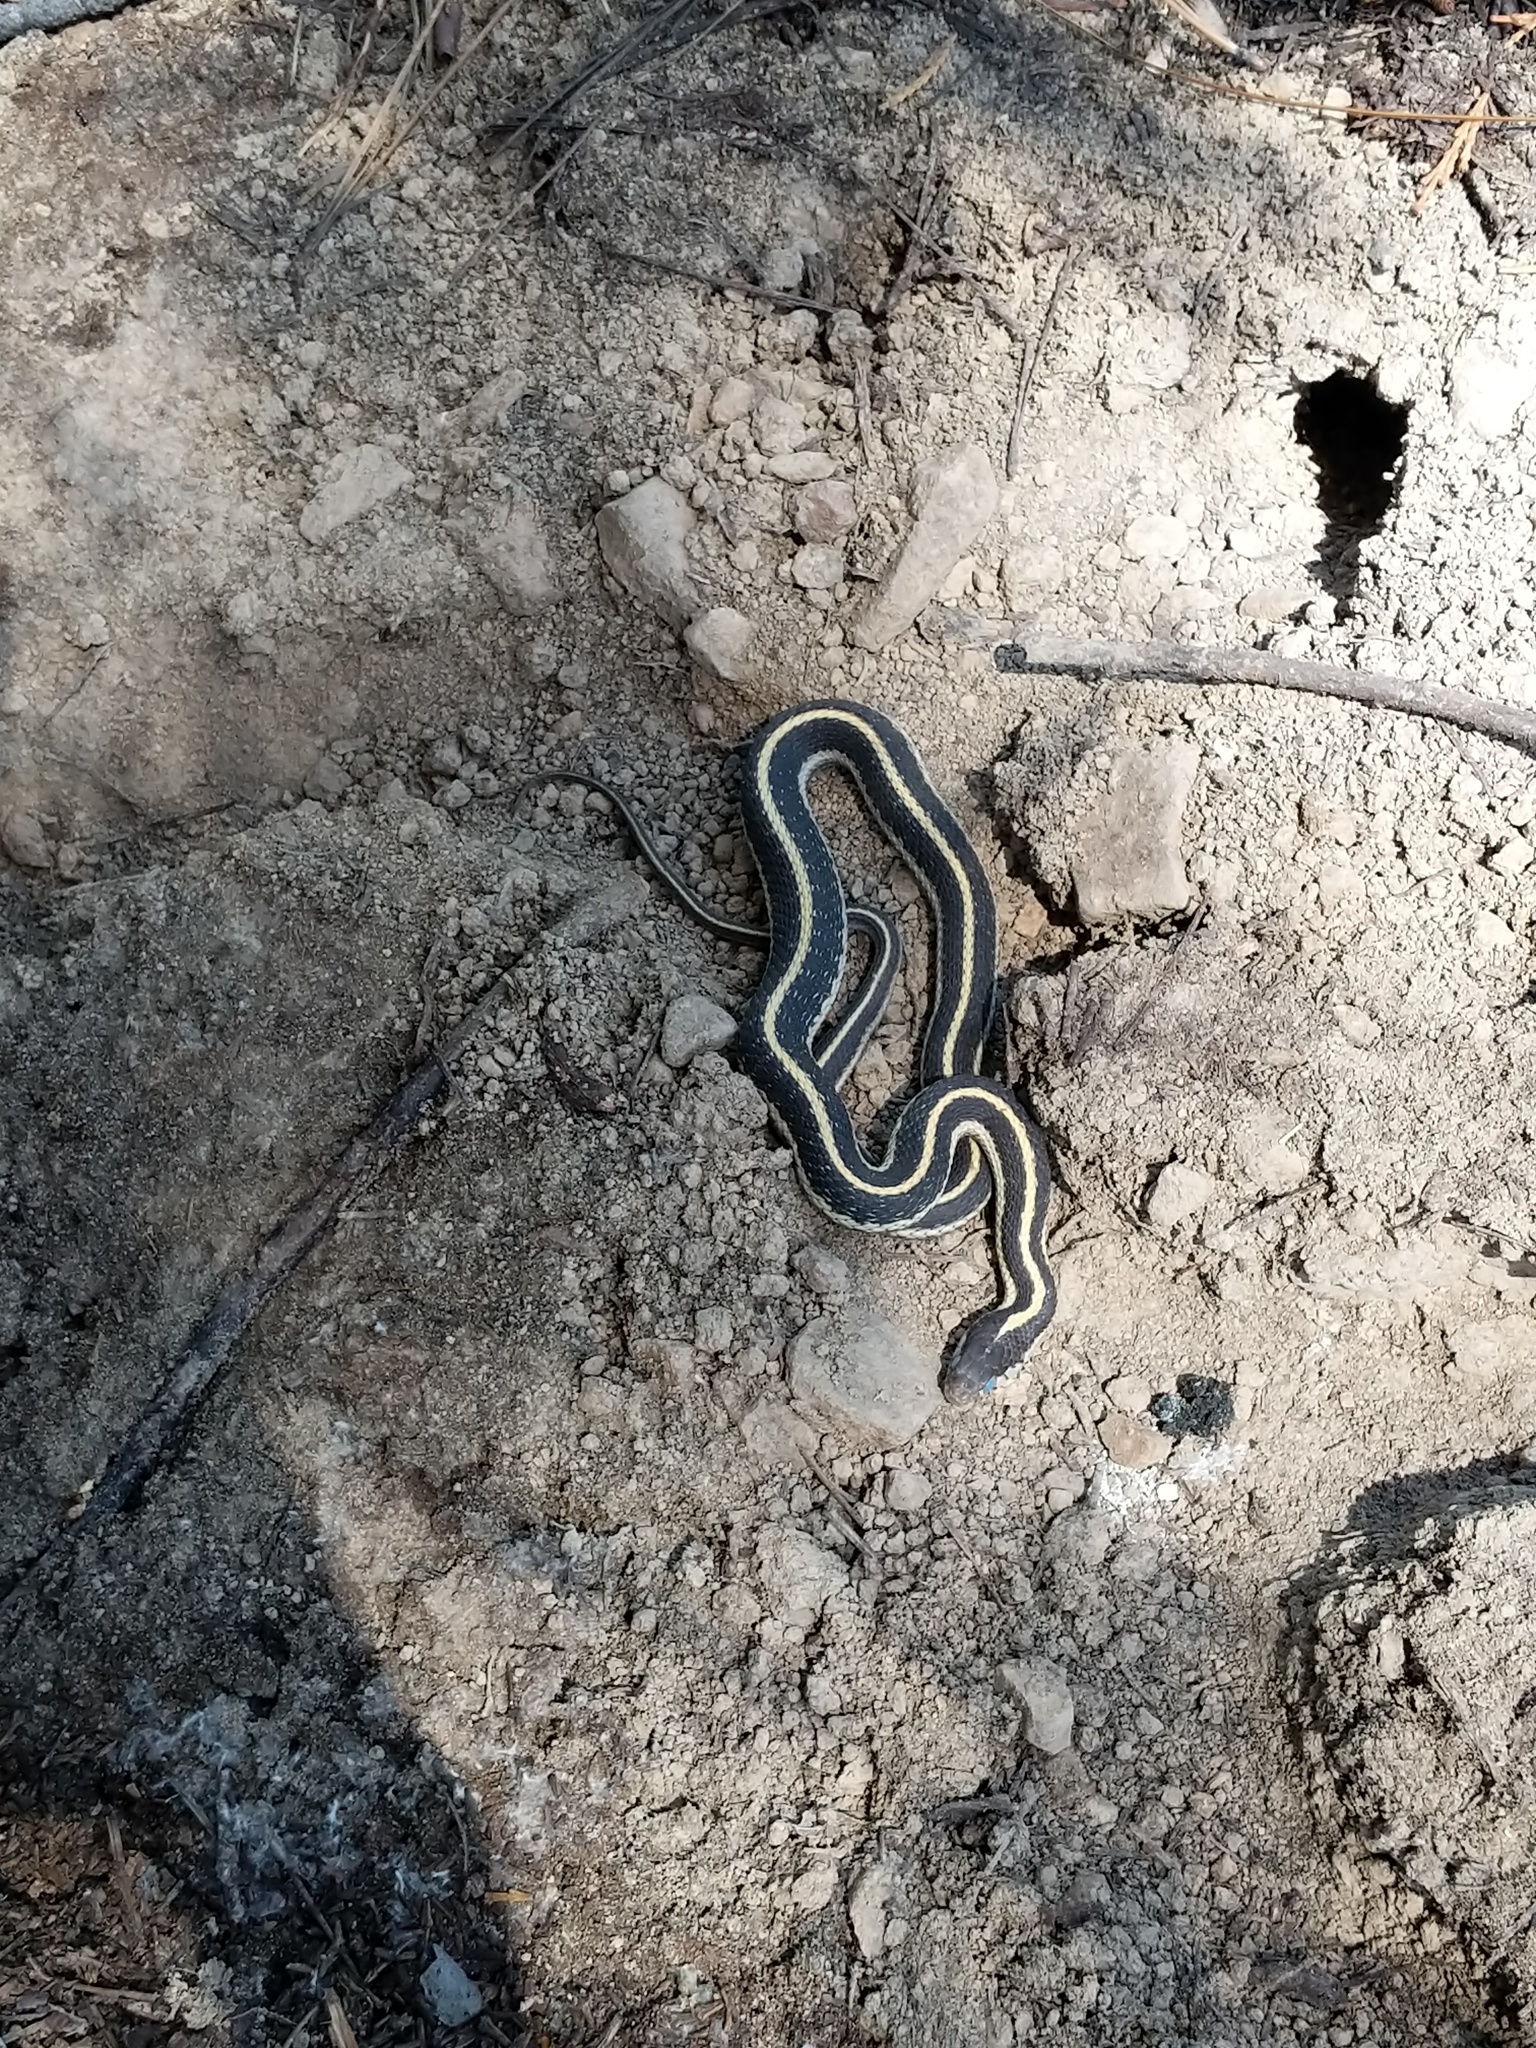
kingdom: Animalia
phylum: Chordata
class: Squamata
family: Colubridae
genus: Thamnophis
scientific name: Thamnophis elegans
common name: Western terrestrial garter snake
